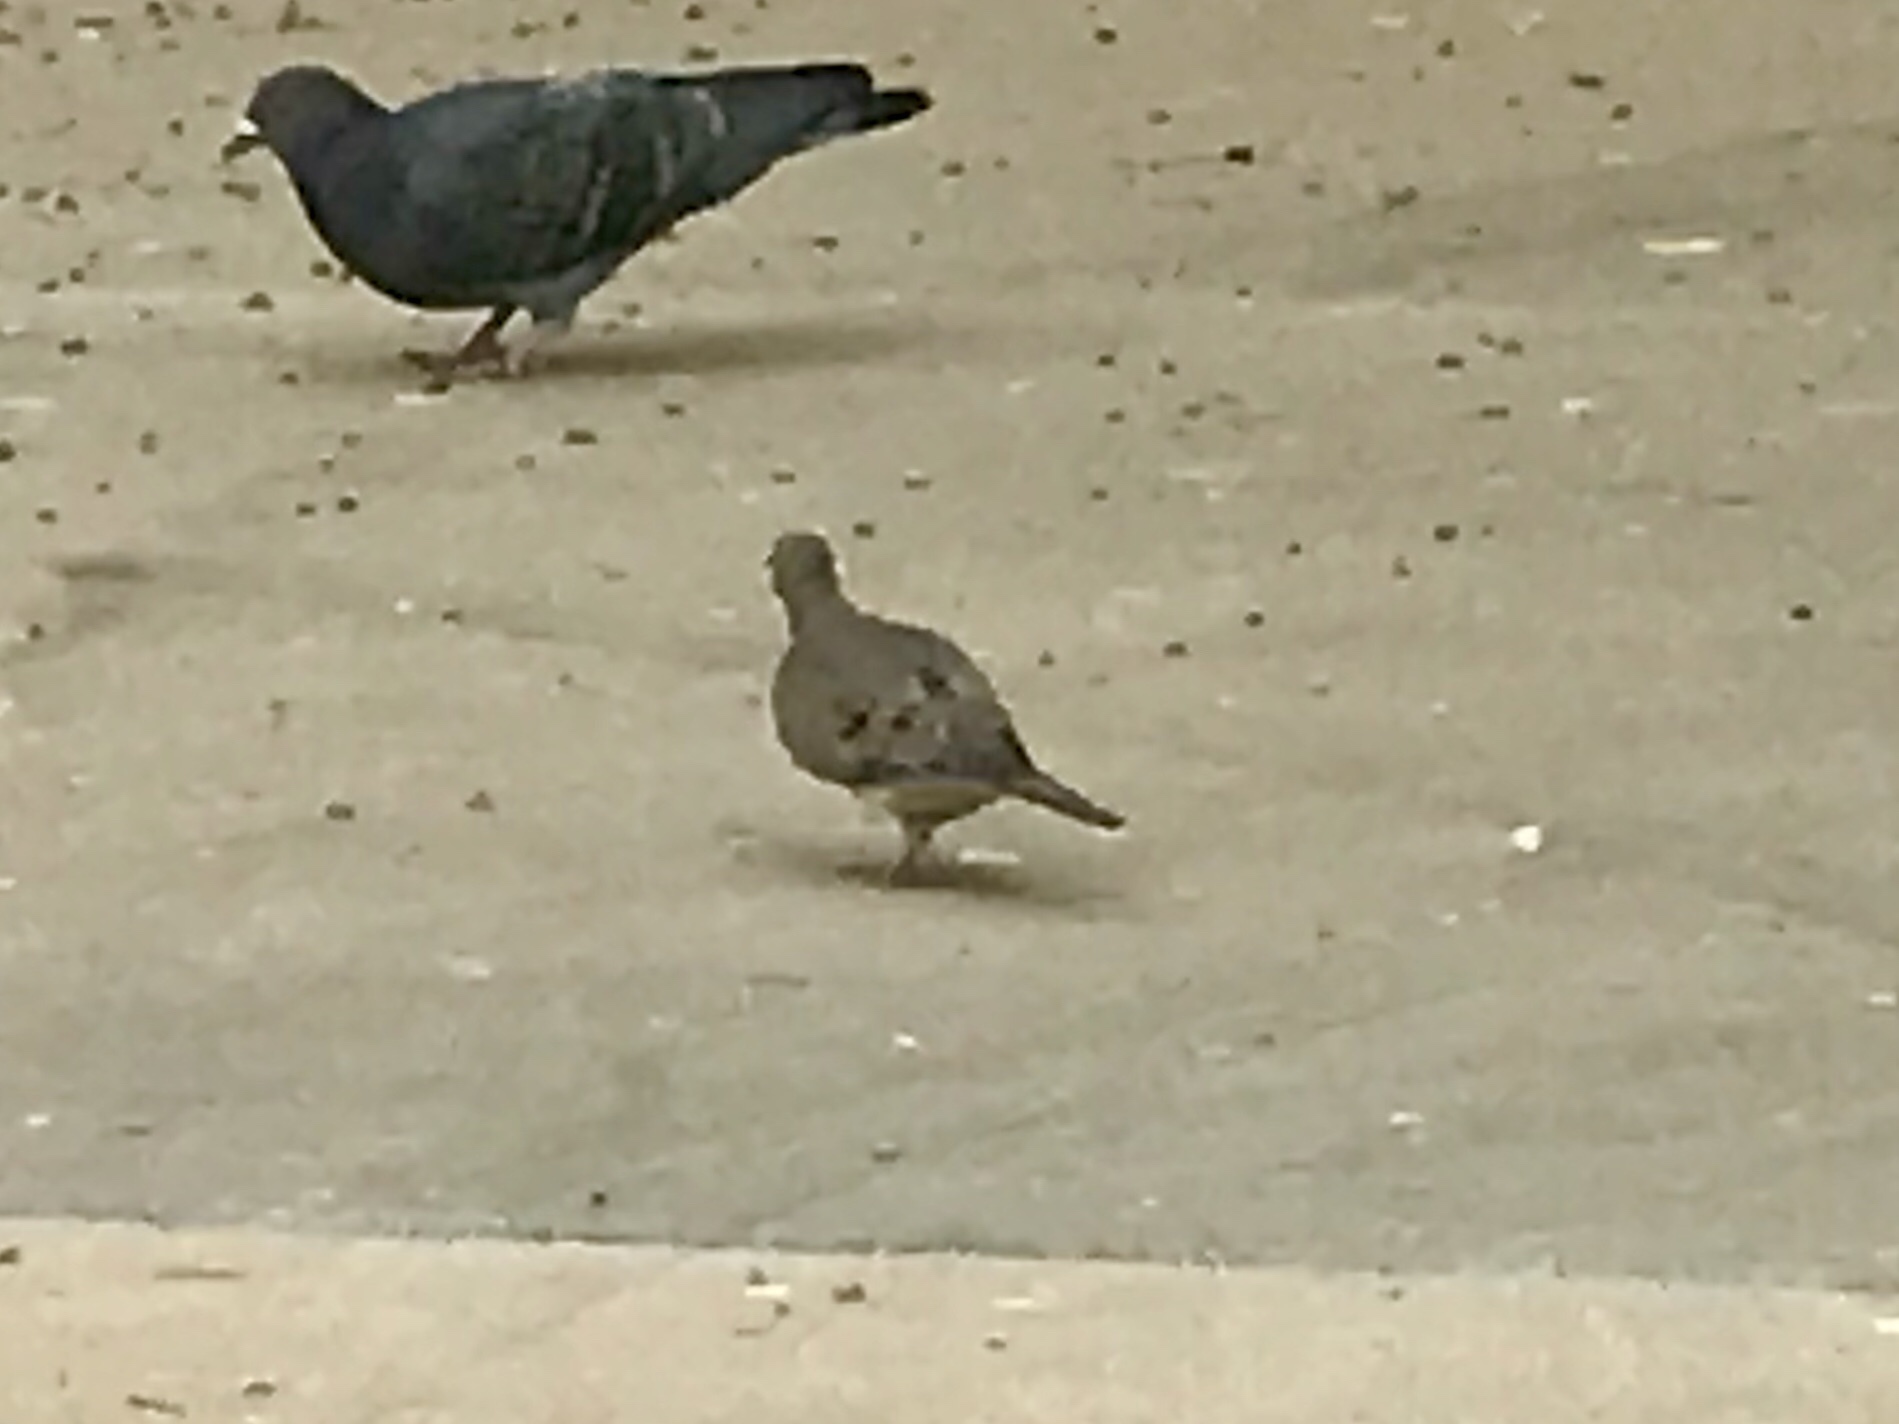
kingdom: Animalia
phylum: Chordata
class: Aves
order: Columbiformes
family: Columbidae
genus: Zenaida
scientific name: Zenaida macroura
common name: Mourning dove
